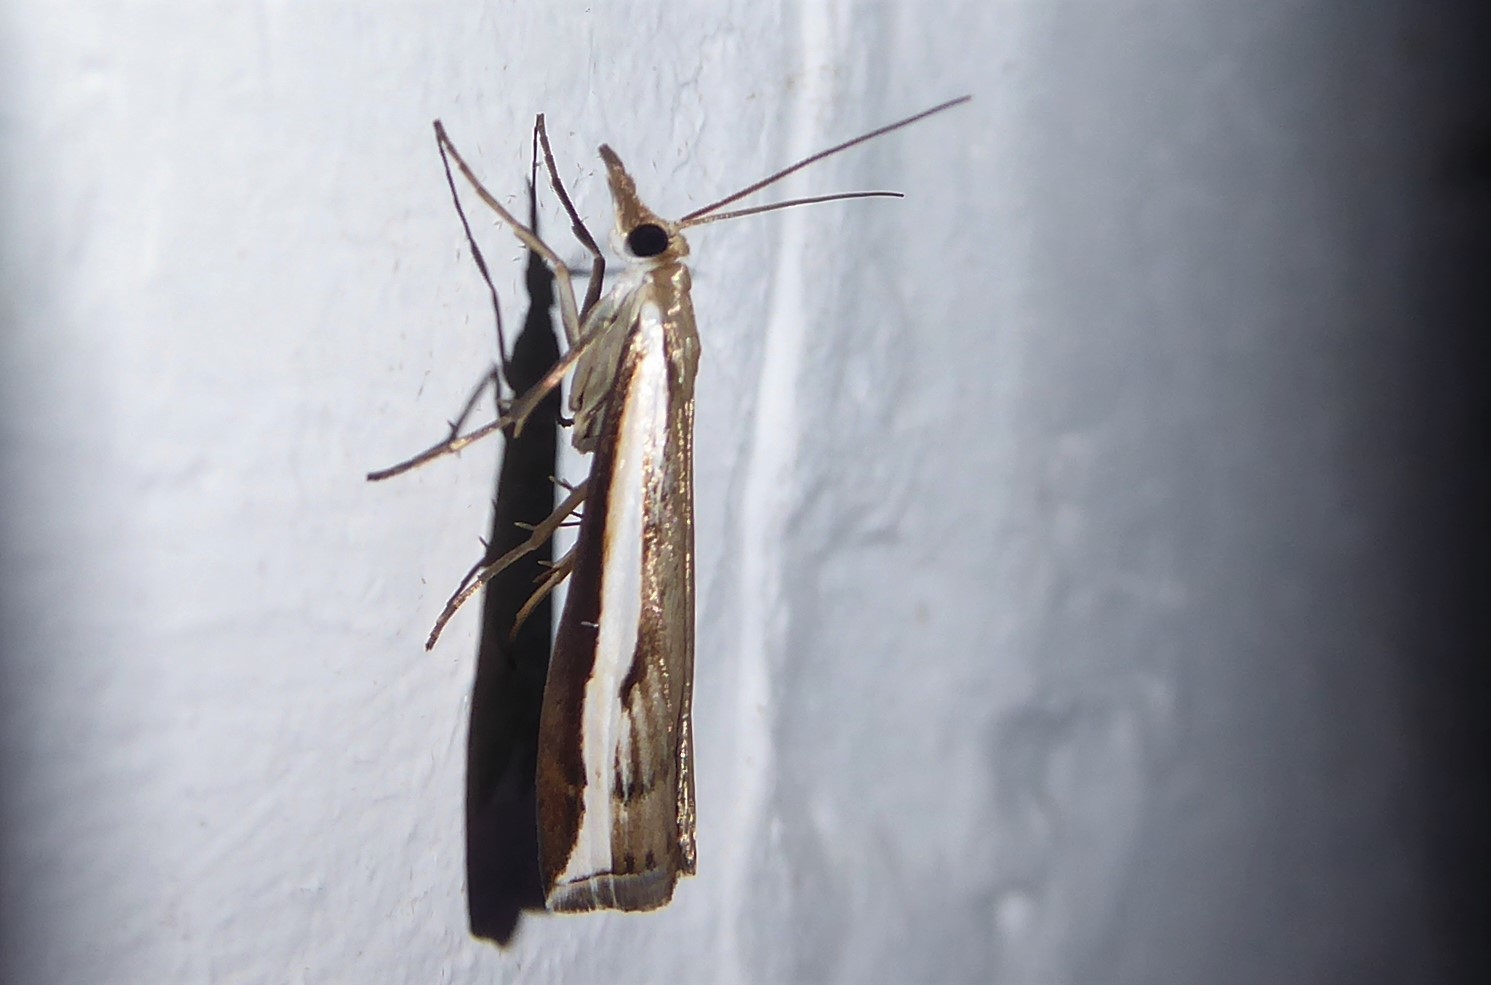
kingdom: Animalia
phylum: Arthropoda
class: Insecta
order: Lepidoptera
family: Crambidae
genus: Orocrambus
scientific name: Orocrambus flexuosellus
